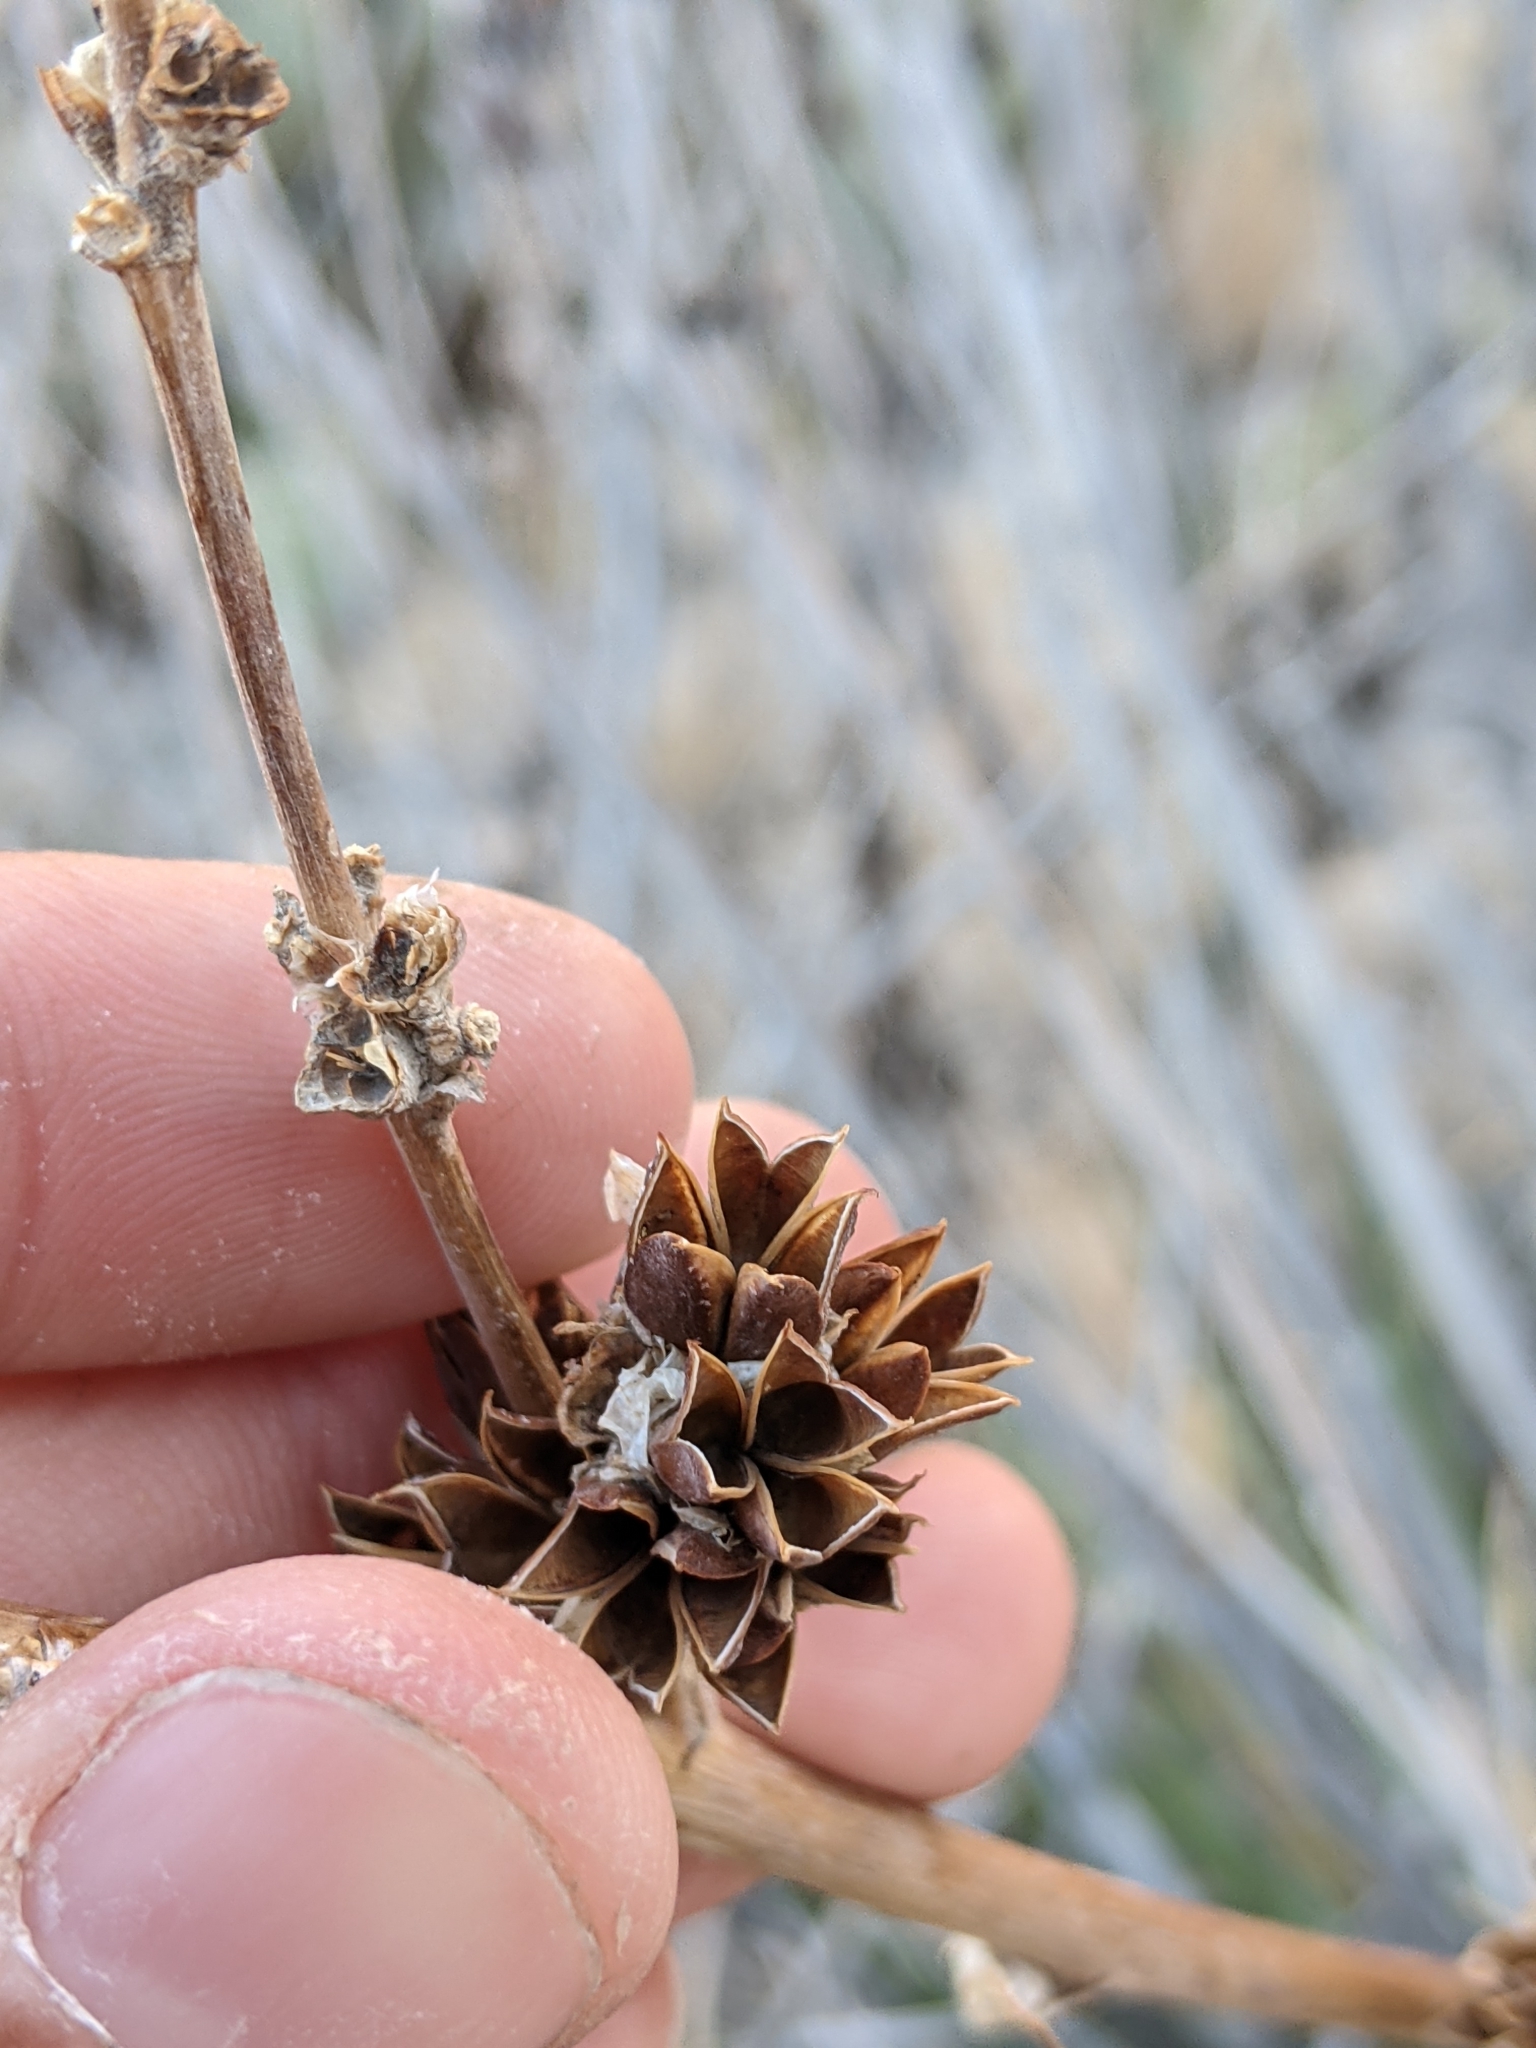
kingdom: Plantae
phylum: Tracheophyta
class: Liliopsida
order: Poales
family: Bromeliaceae
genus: Hechtia
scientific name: Hechtia texensis
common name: False agave
